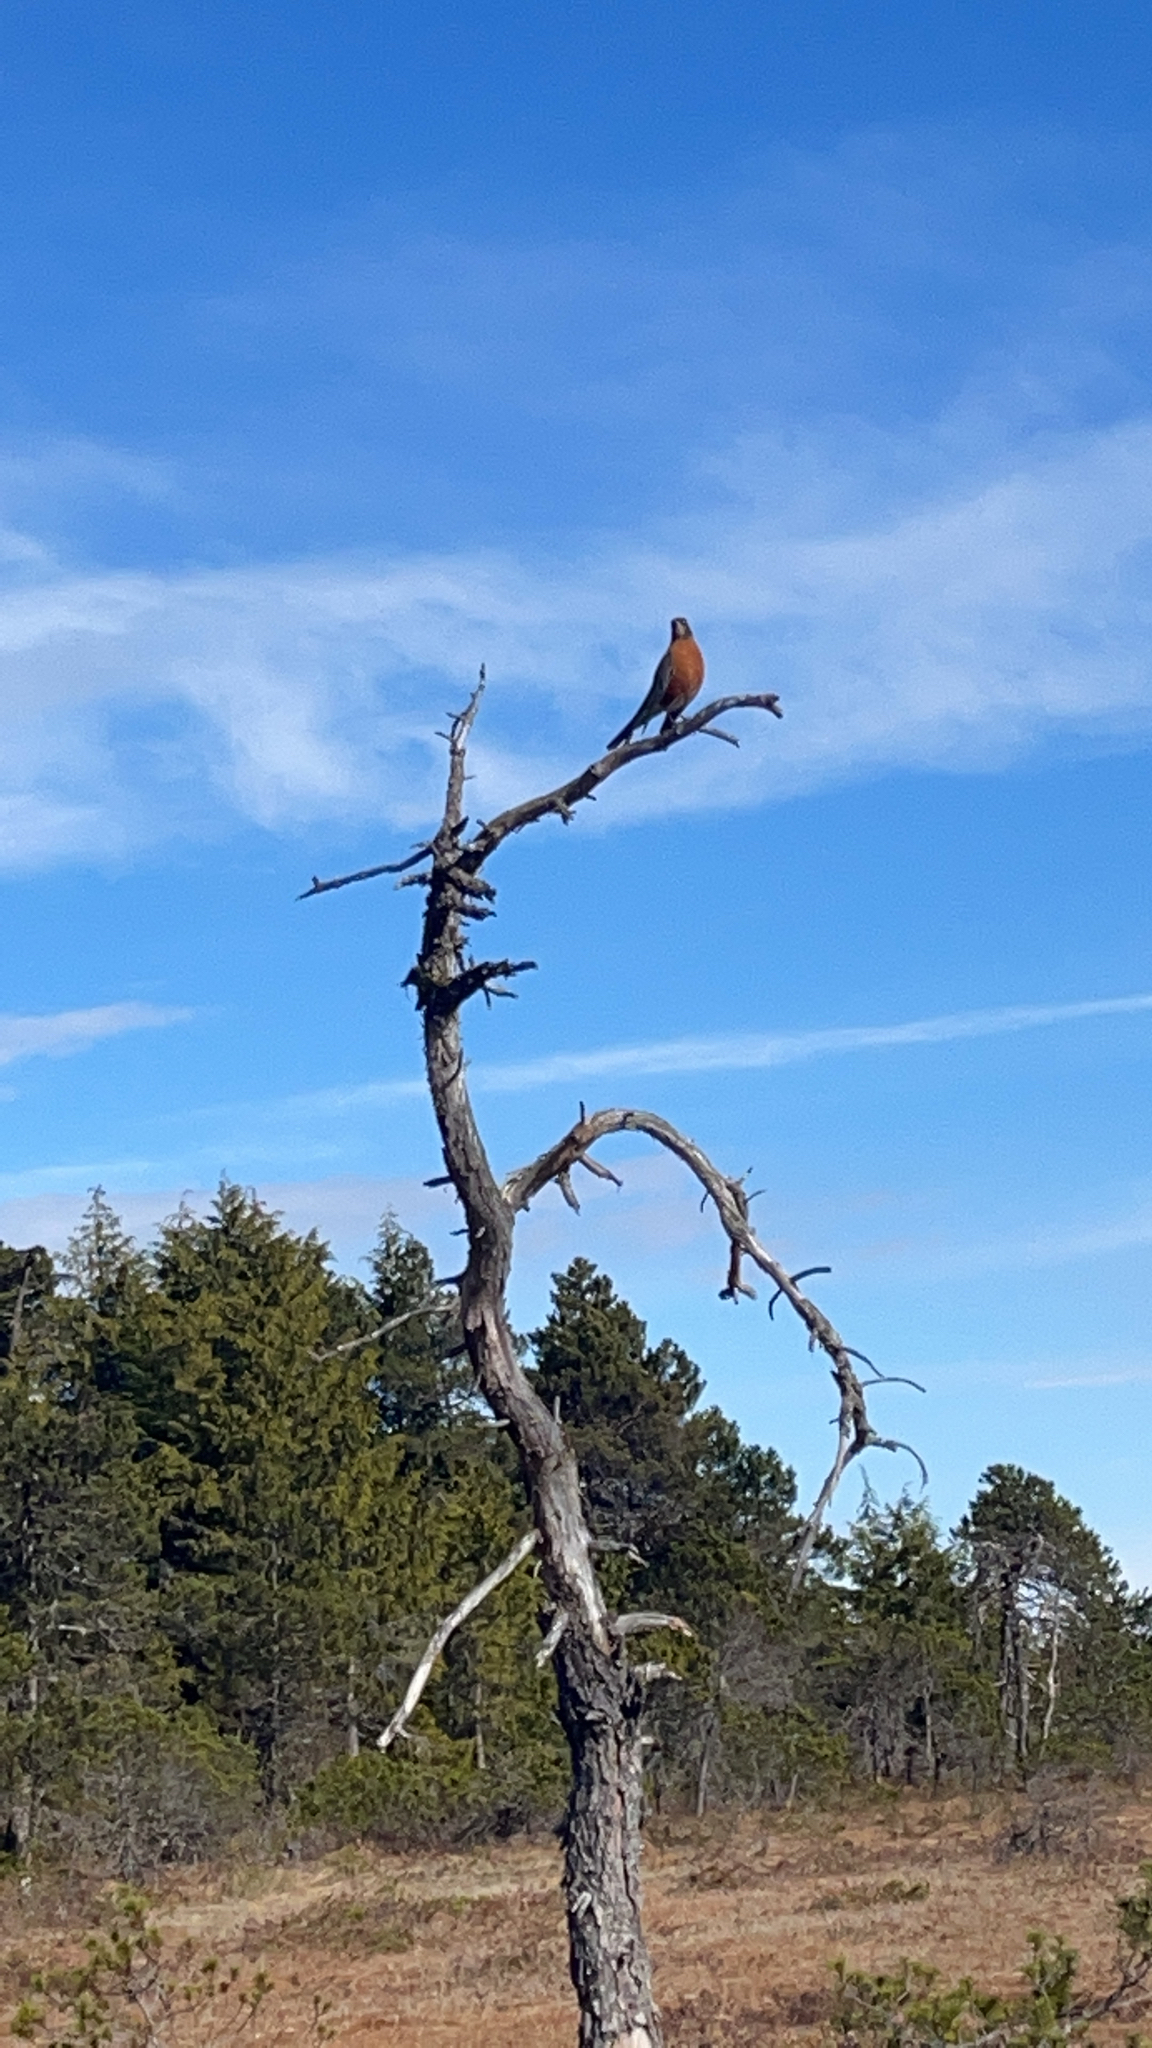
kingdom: Animalia
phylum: Chordata
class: Aves
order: Passeriformes
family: Turdidae
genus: Turdus
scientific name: Turdus migratorius
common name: American robin
